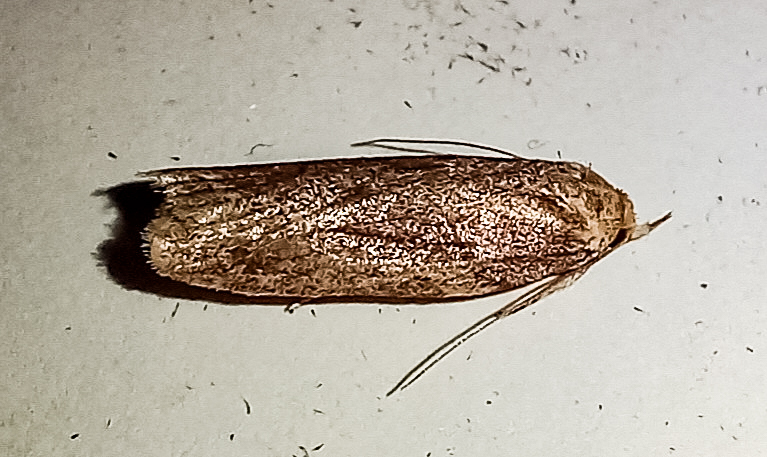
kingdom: Animalia
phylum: Arthropoda
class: Insecta
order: Lepidoptera
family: Depressariidae
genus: Agriophara
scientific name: Agriophara
